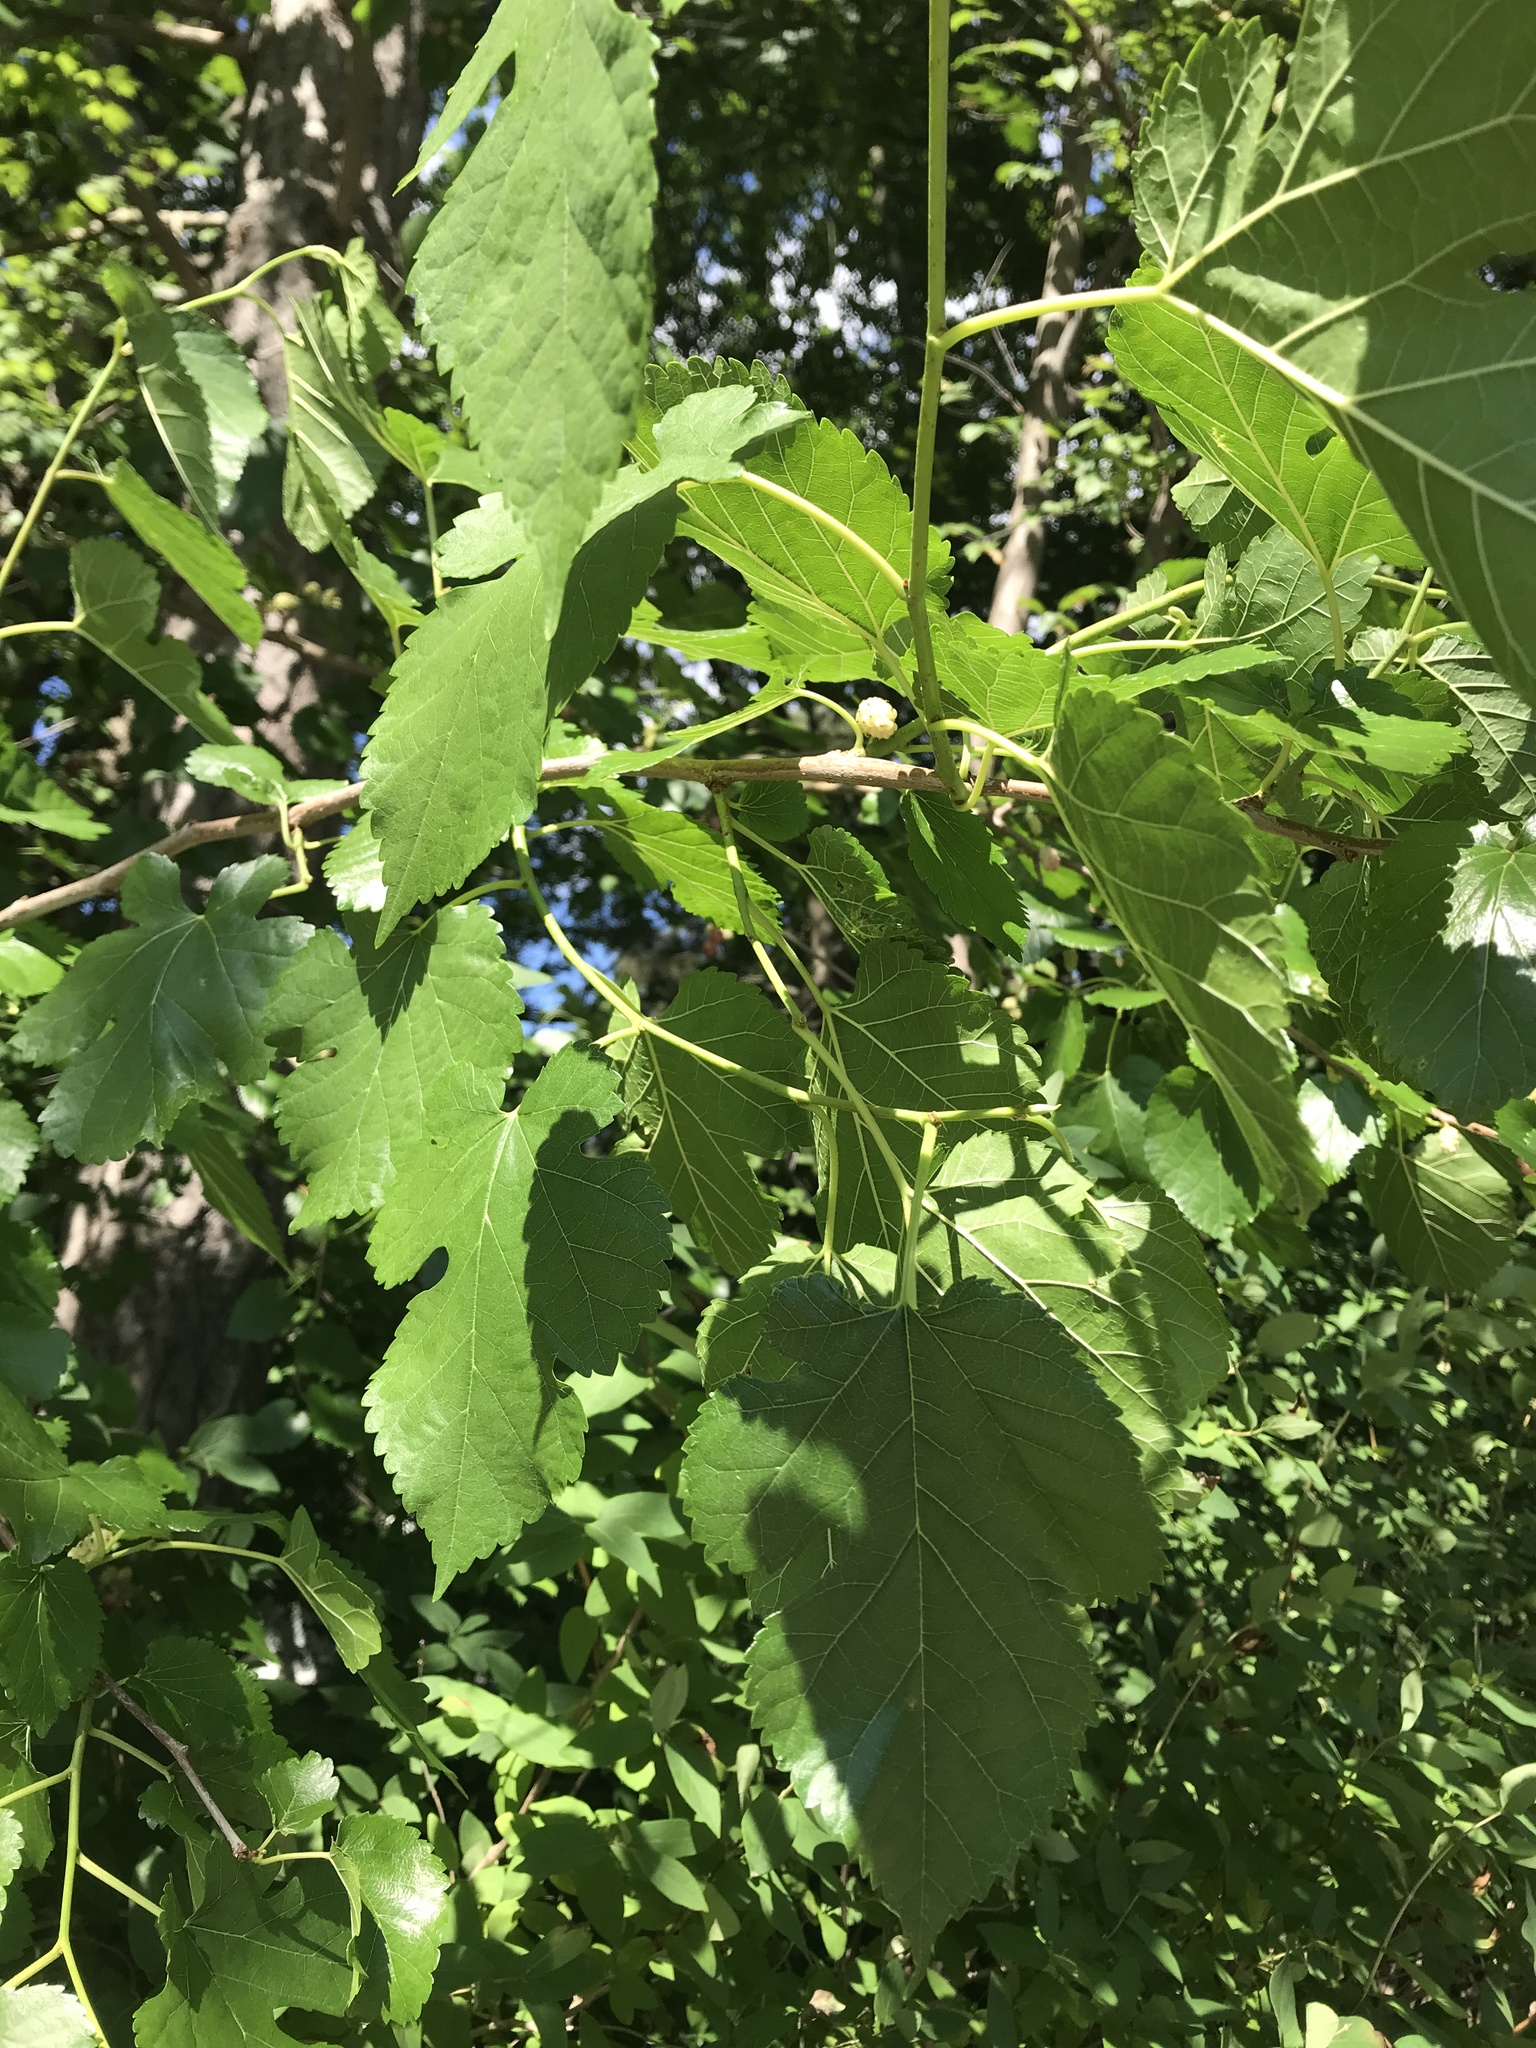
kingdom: Plantae
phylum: Tracheophyta
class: Magnoliopsida
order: Rosales
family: Moraceae
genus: Morus
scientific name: Morus alba
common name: White mulberry
